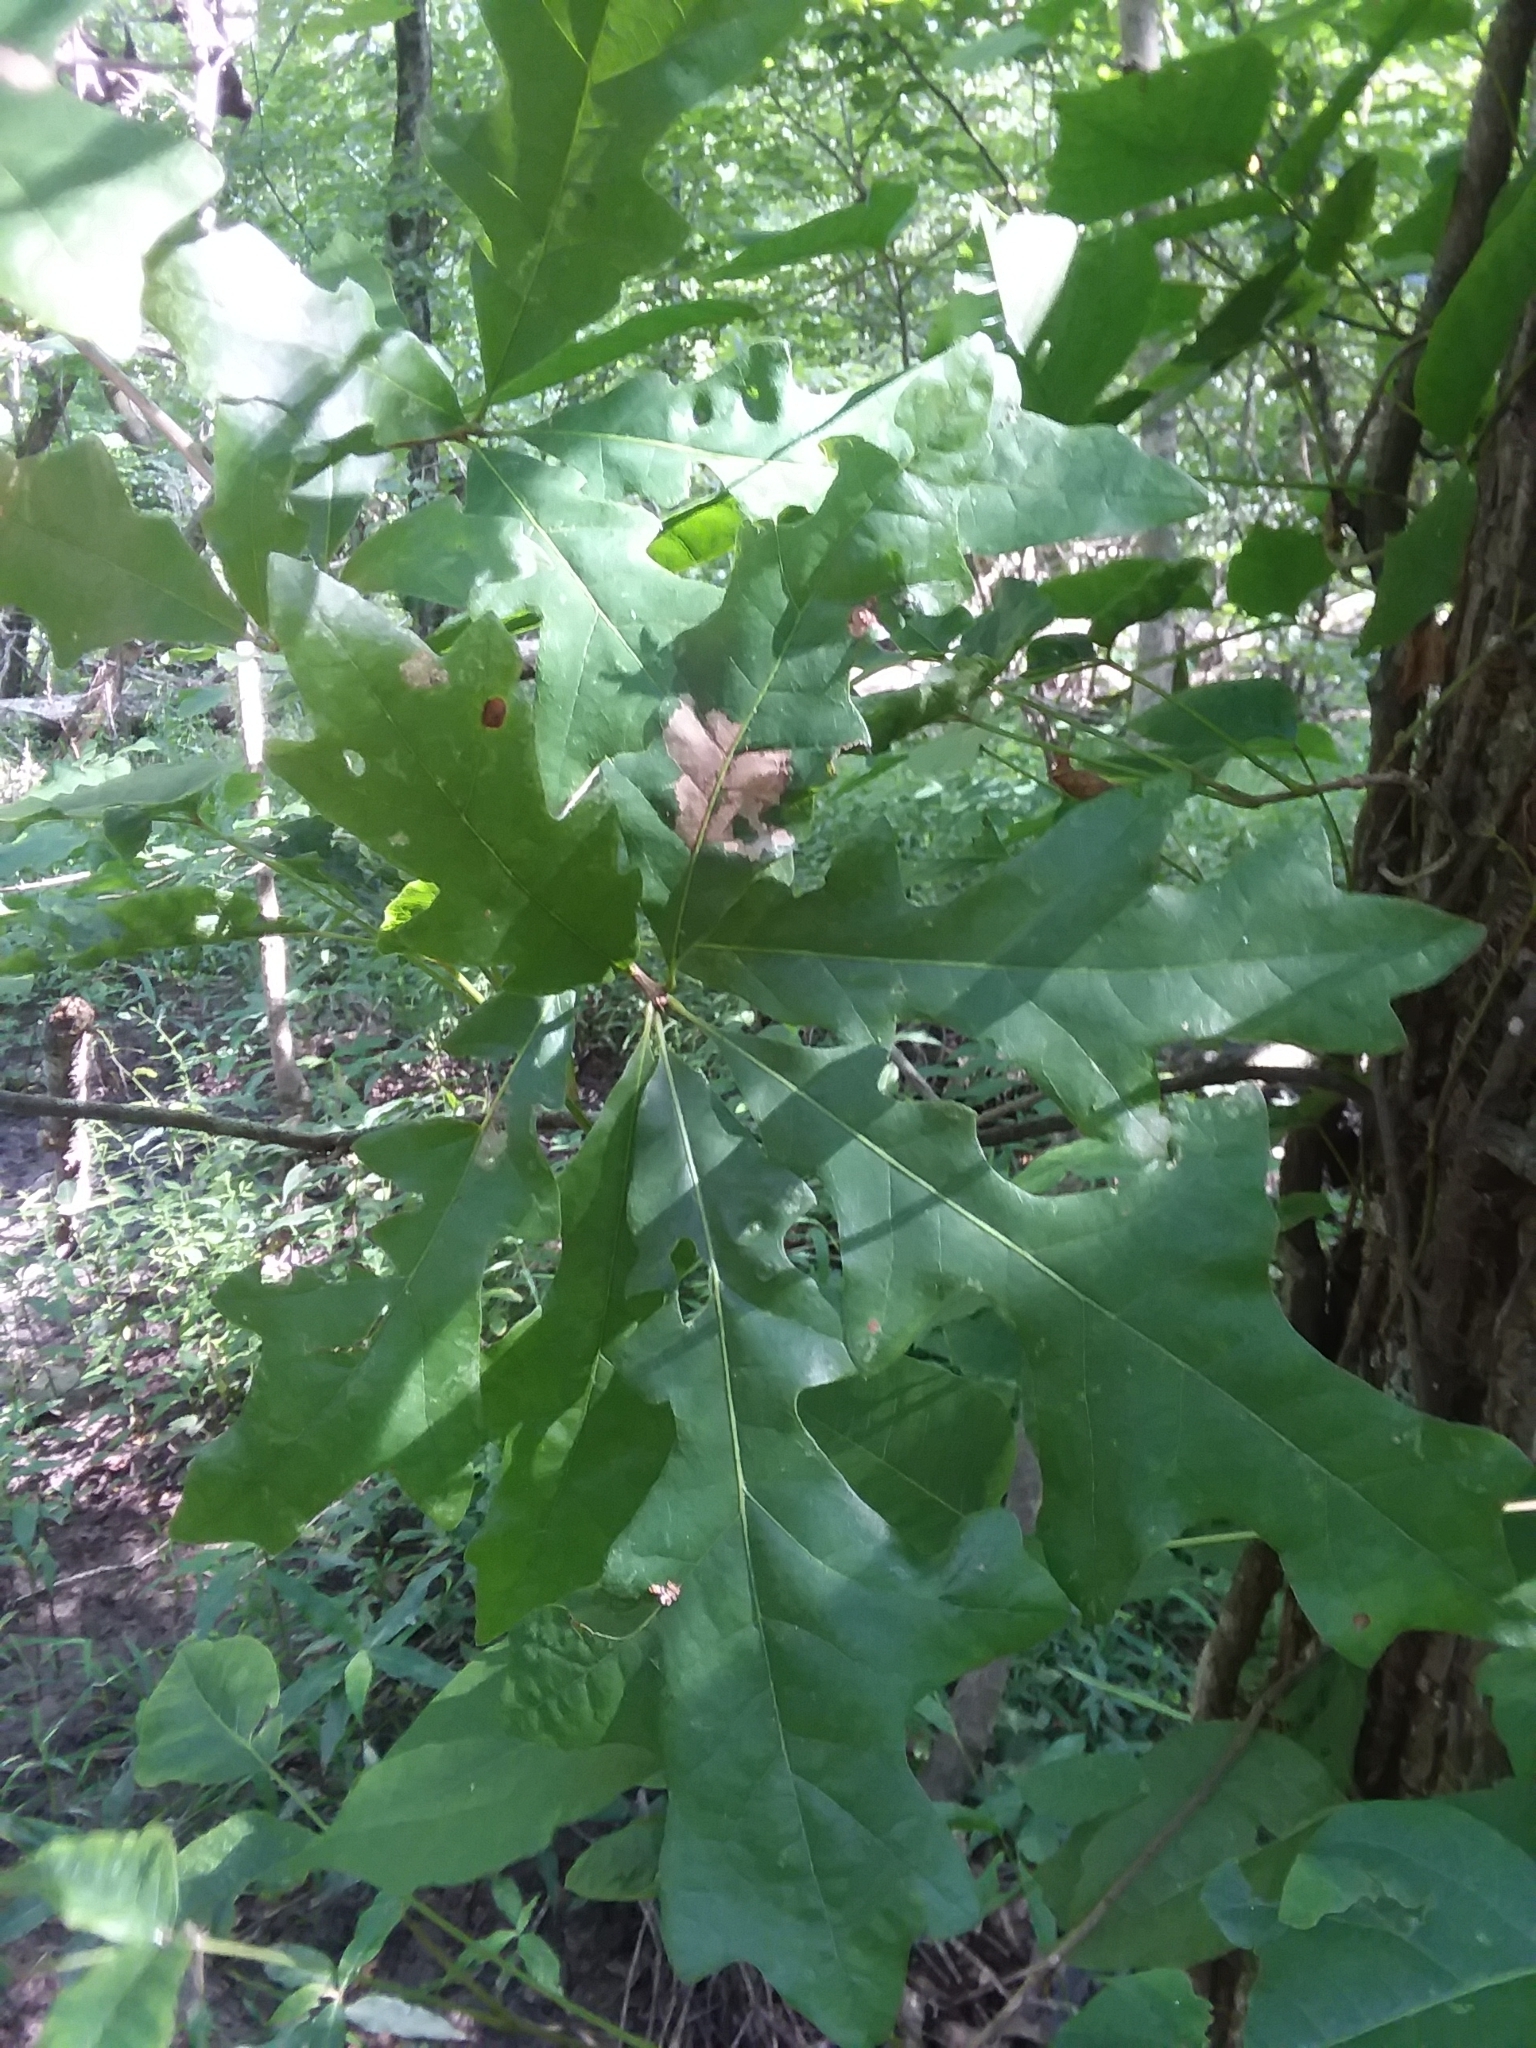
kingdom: Plantae
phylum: Tracheophyta
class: Magnoliopsida
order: Fagales
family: Fagaceae
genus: Quercus
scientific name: Quercus lyrata
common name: Overcup oak
